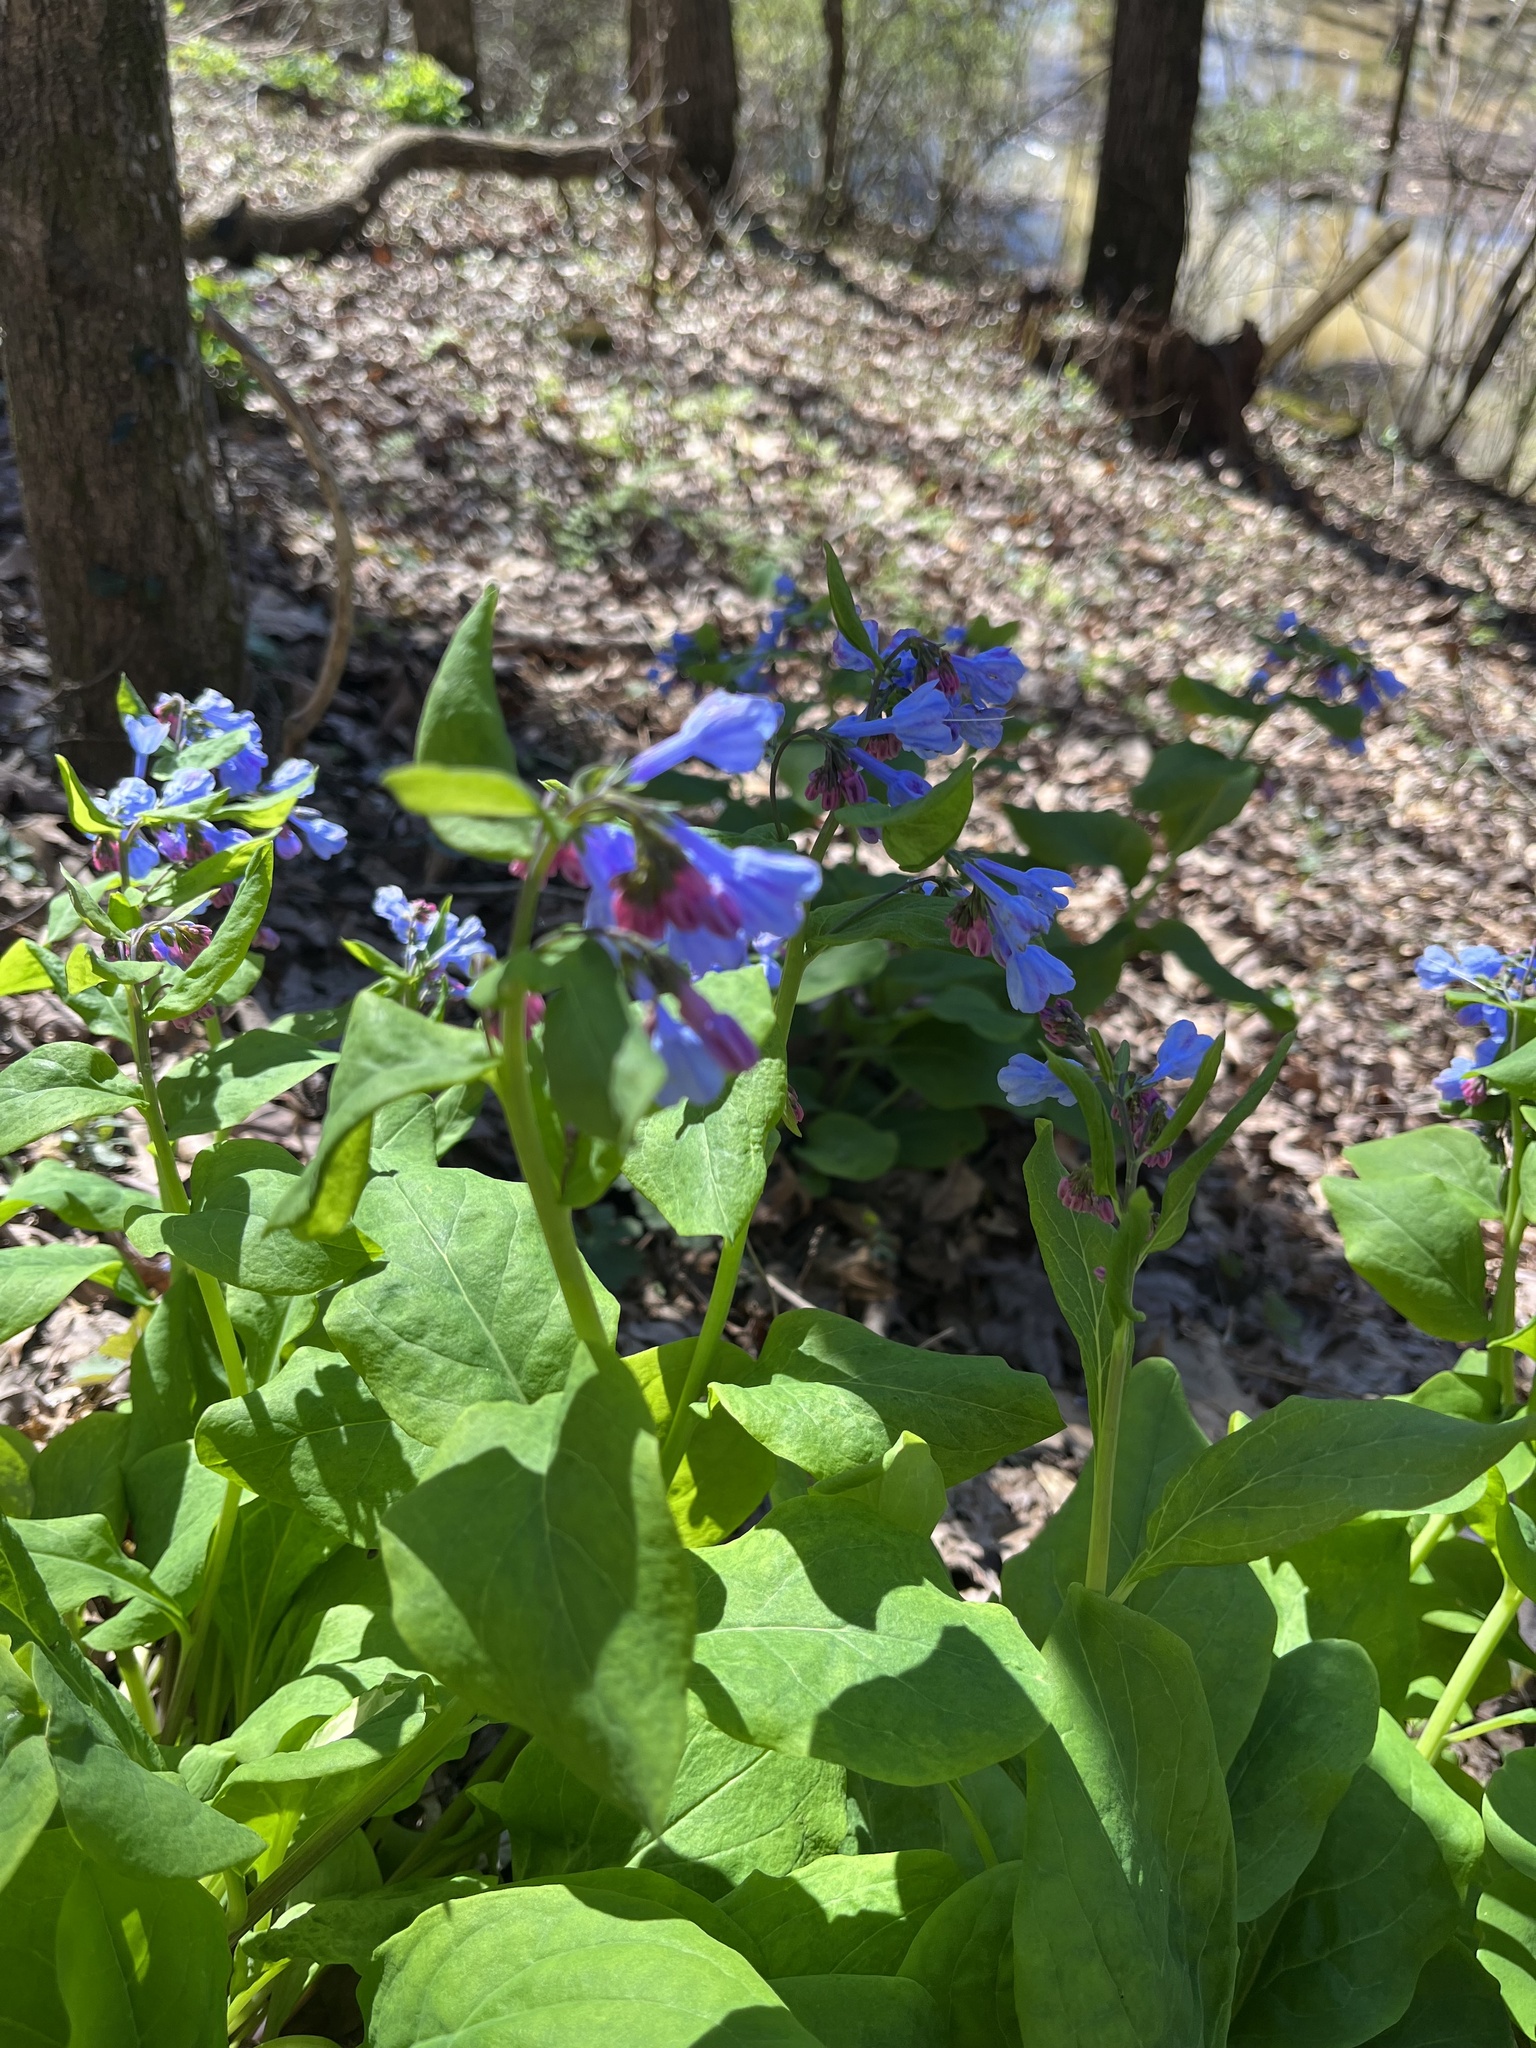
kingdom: Plantae
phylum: Tracheophyta
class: Magnoliopsida
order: Boraginales
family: Boraginaceae
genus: Mertensia
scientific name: Mertensia virginica
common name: Virginia bluebells
